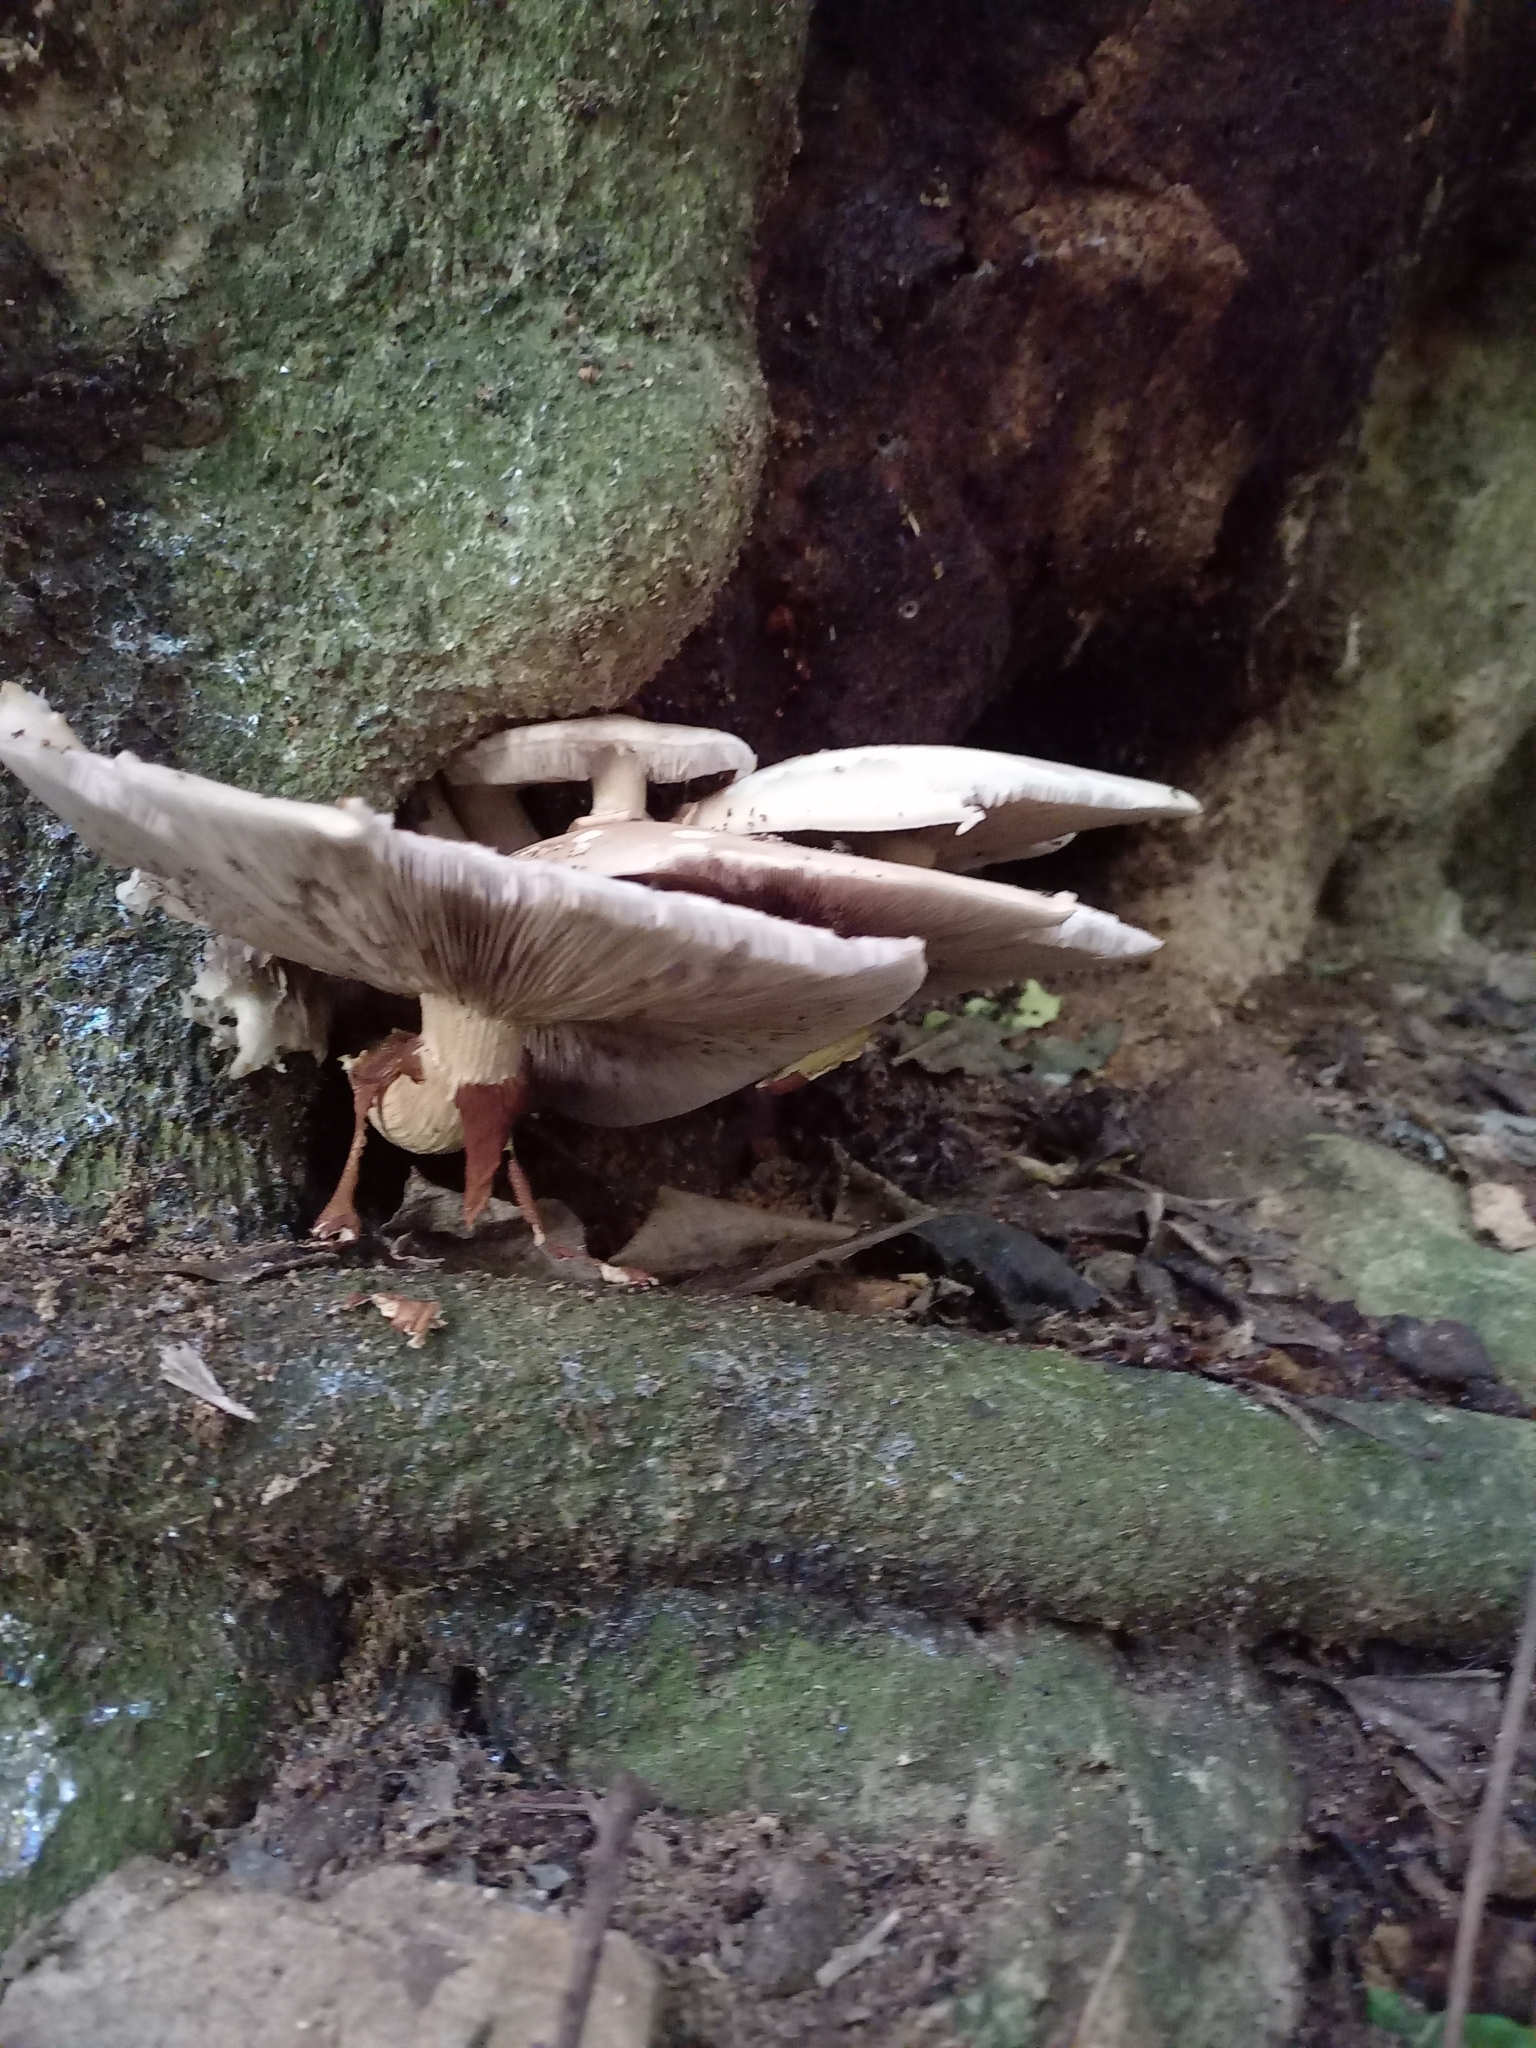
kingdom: Fungi
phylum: Basidiomycota
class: Agaricomycetes
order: Agaricales
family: Tubariaceae
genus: Cyclocybe
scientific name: Cyclocybe parasitica
